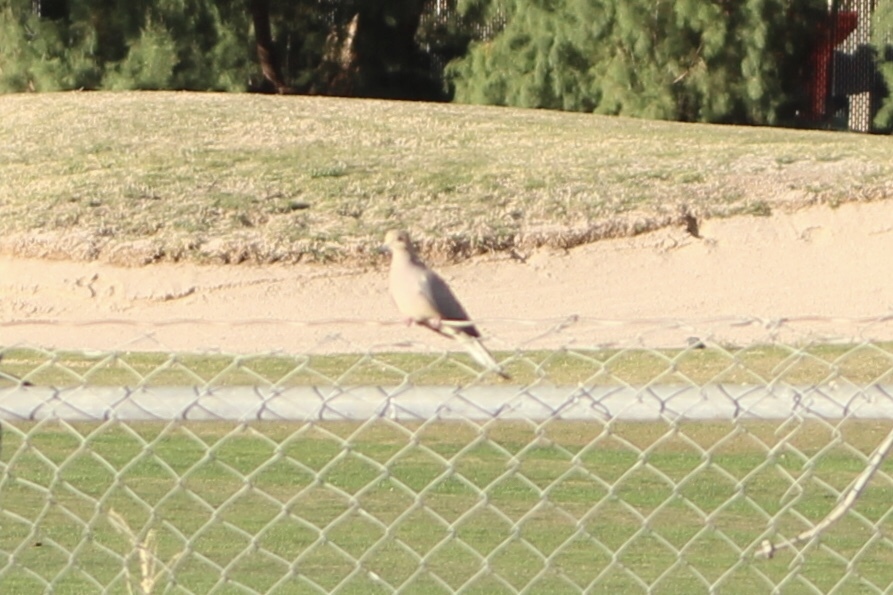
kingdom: Animalia
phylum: Chordata
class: Aves
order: Columbiformes
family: Columbidae
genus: Zenaida
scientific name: Zenaida macroura
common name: Mourning dove
